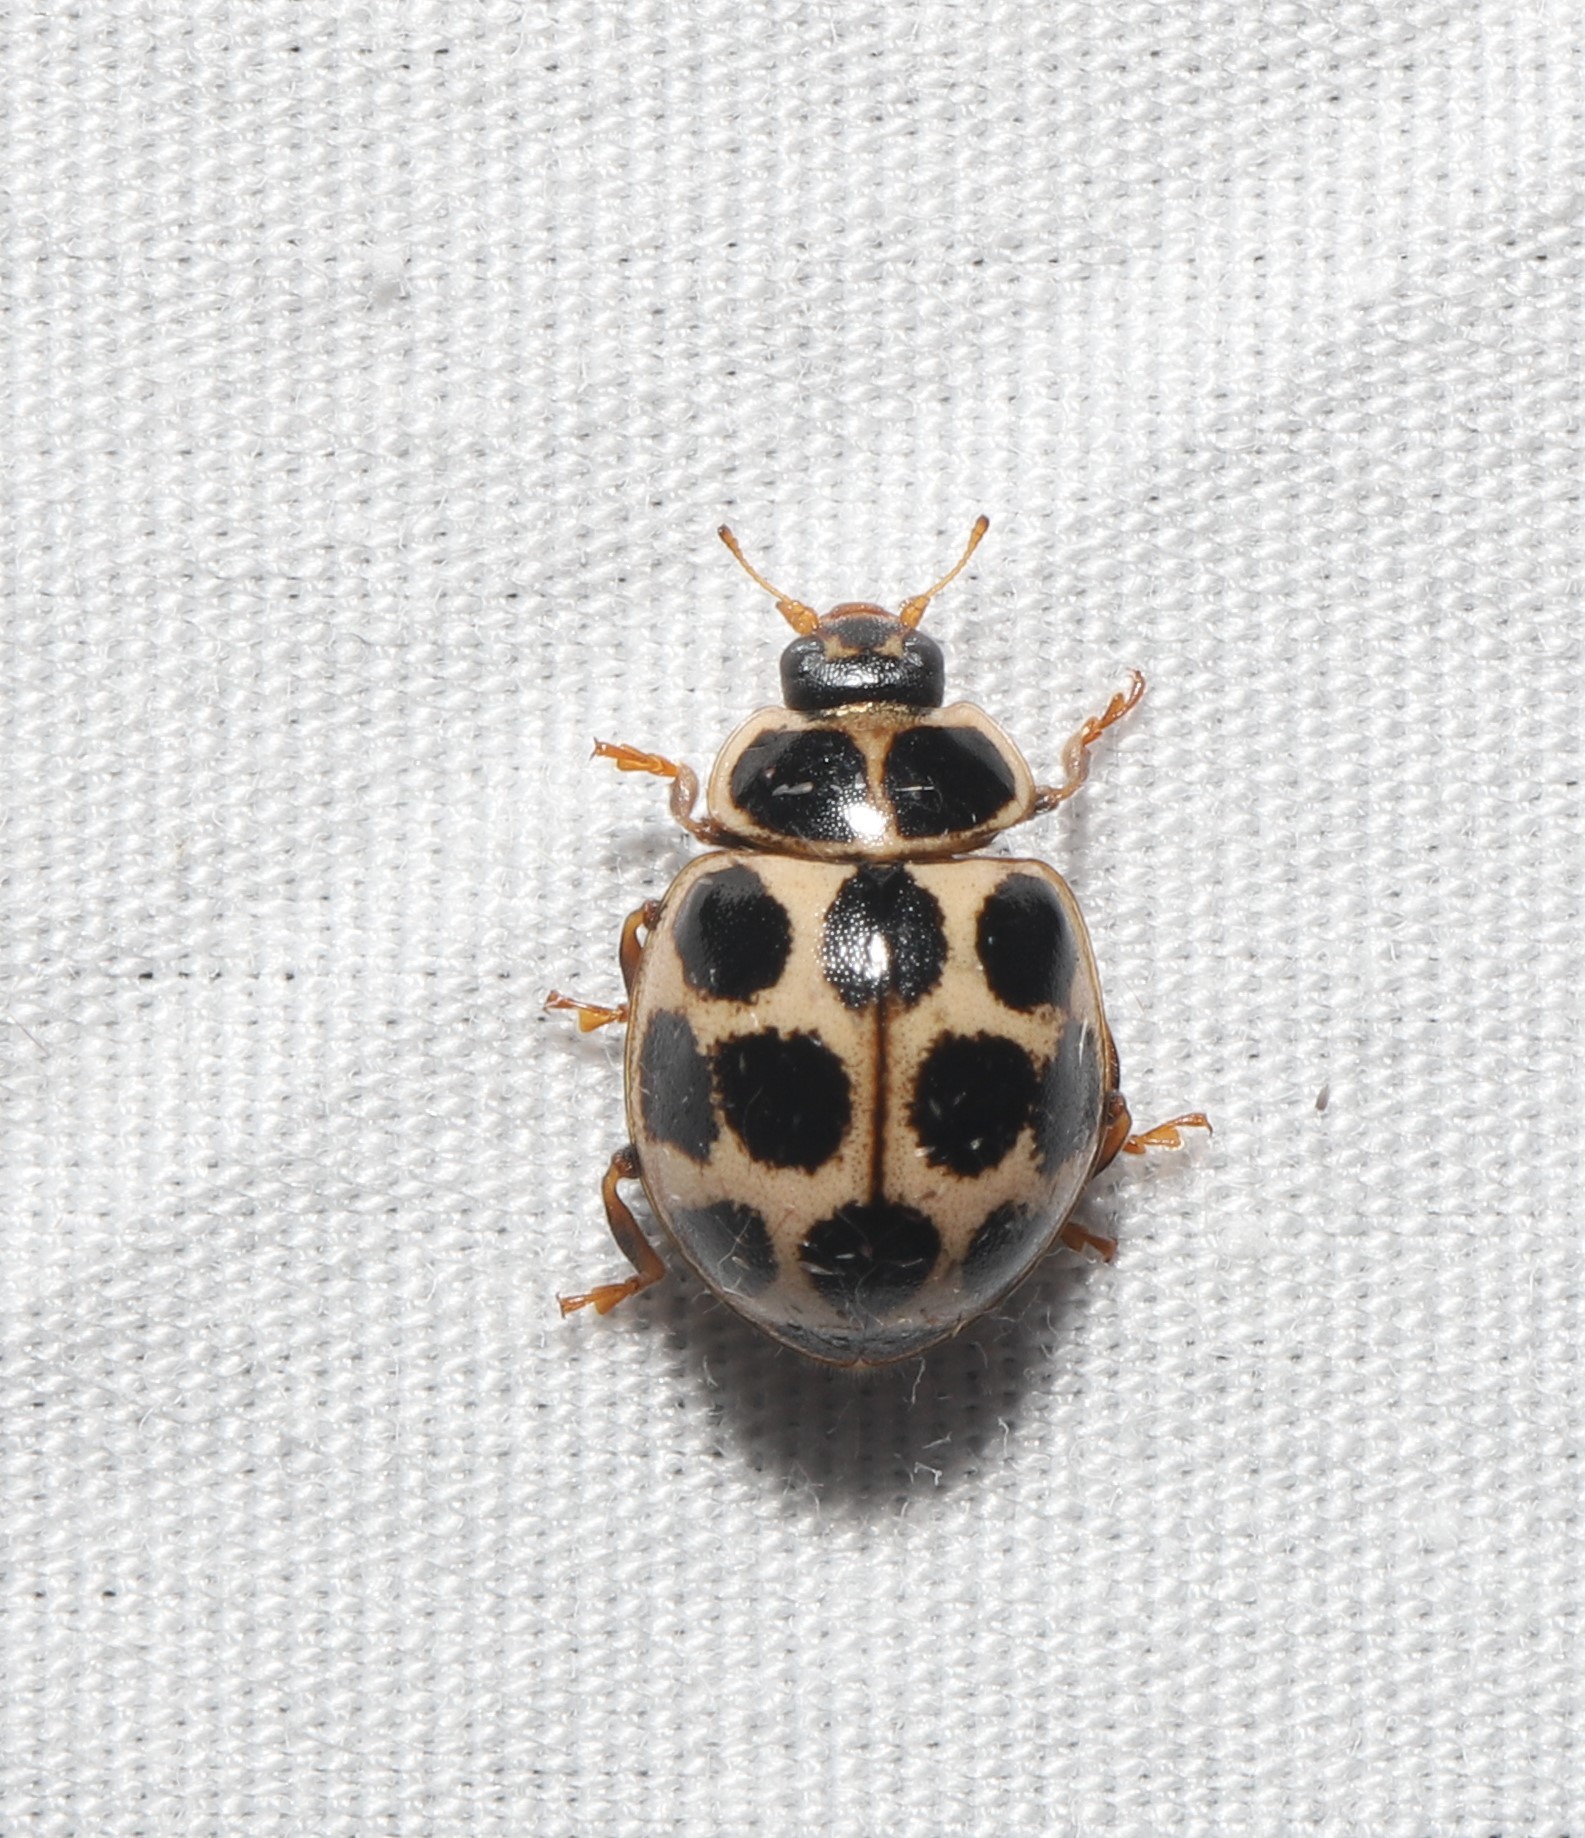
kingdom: Animalia
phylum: Arthropoda
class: Insecta
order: Coleoptera
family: Coccinellidae
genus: Calvia
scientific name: Calvia quatuordecimguttata
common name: Cream-spot ladybird
